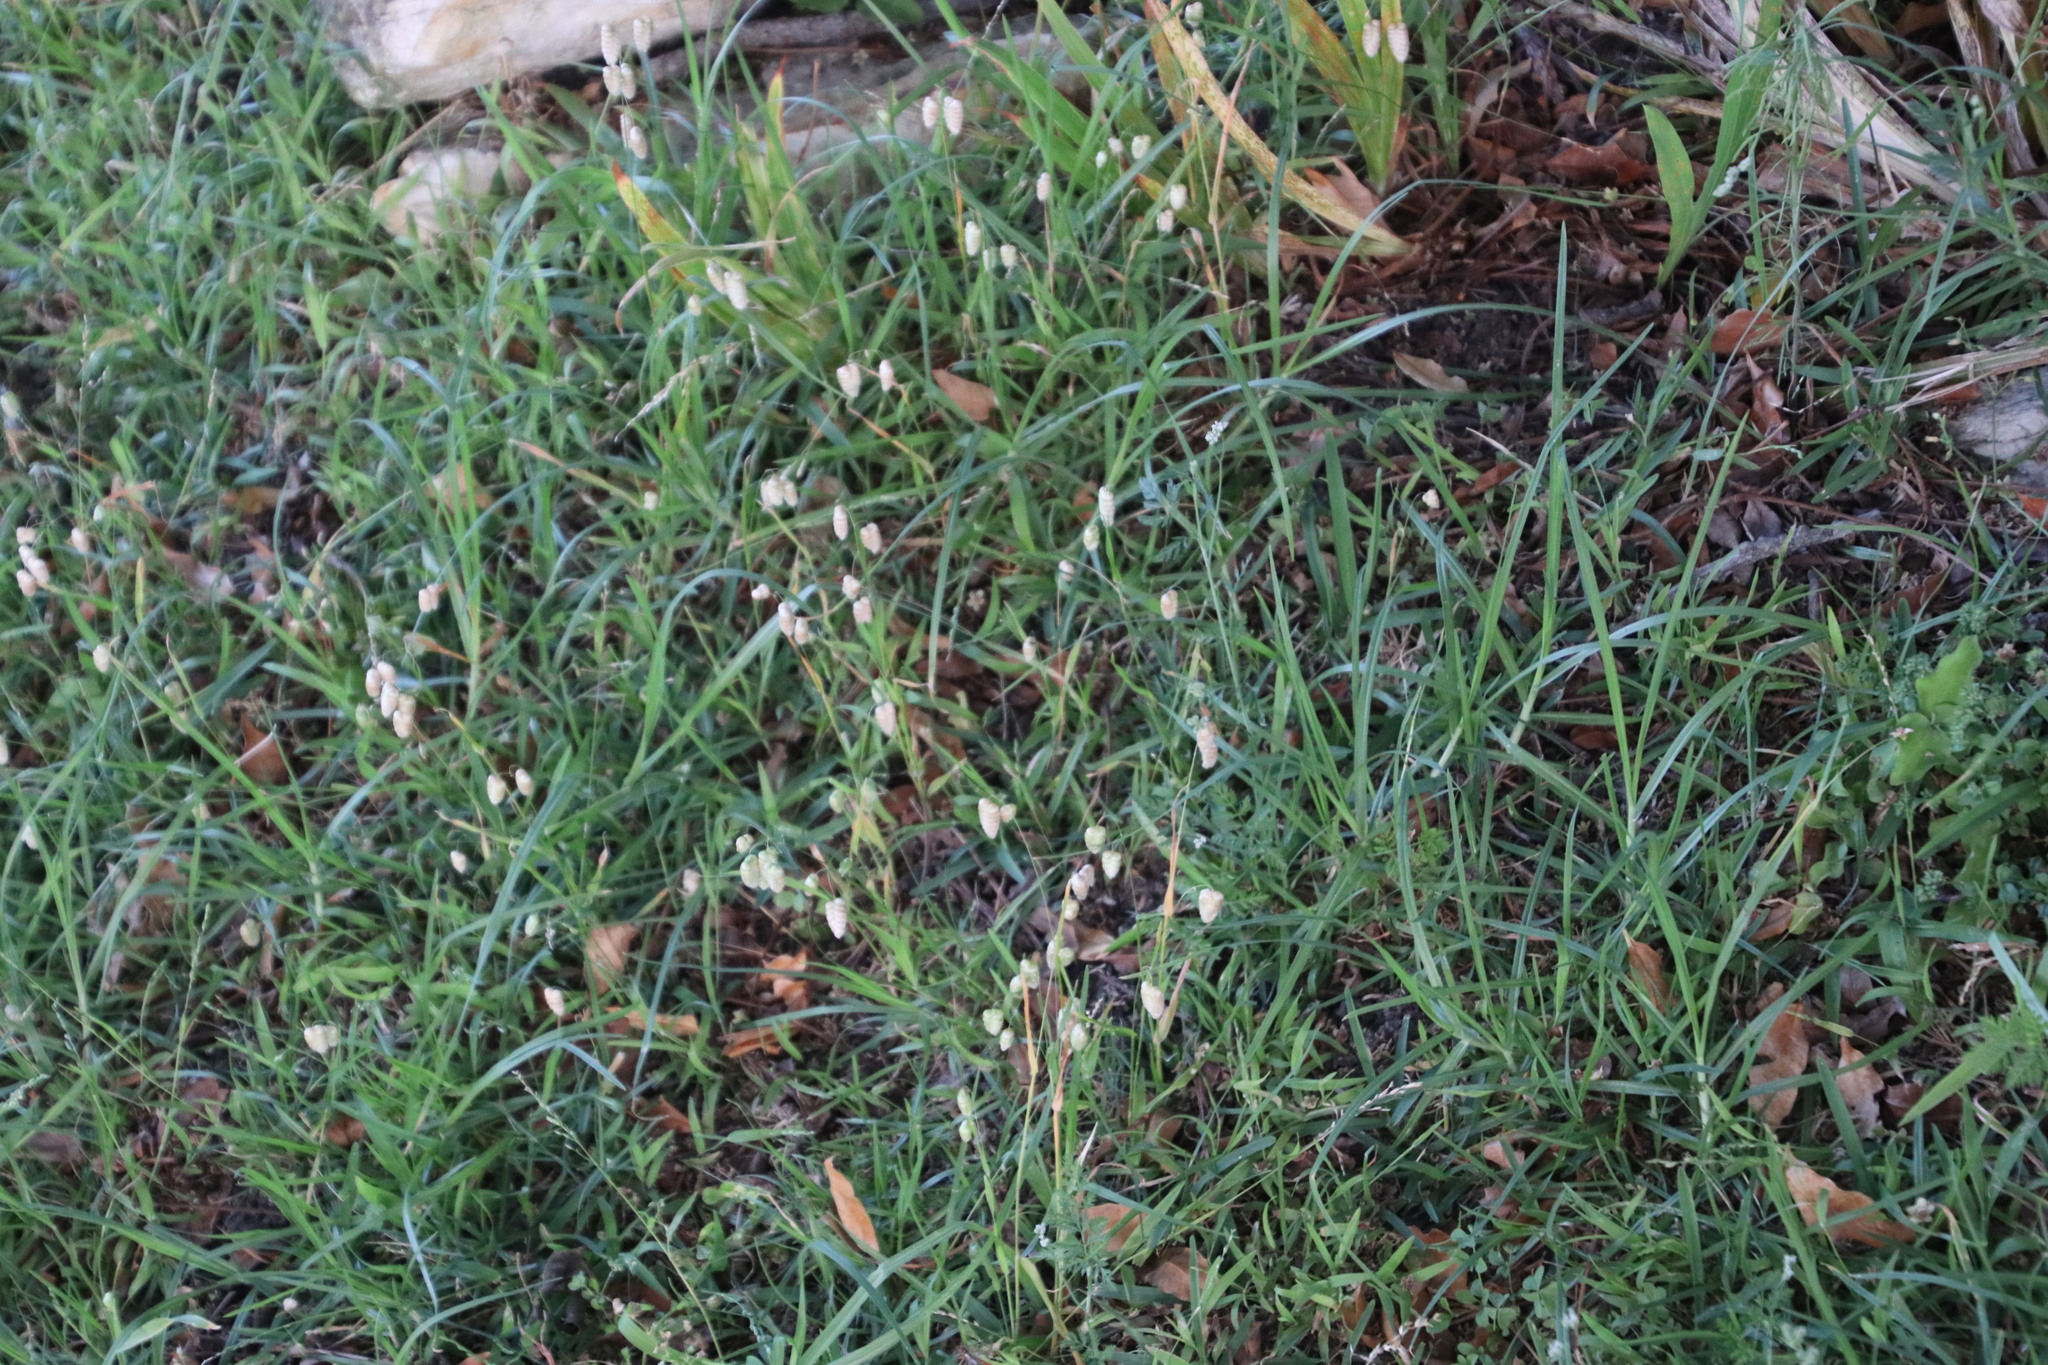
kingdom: Plantae
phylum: Tracheophyta
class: Liliopsida
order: Poales
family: Poaceae
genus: Briza
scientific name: Briza maxima
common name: Big quakinggrass
